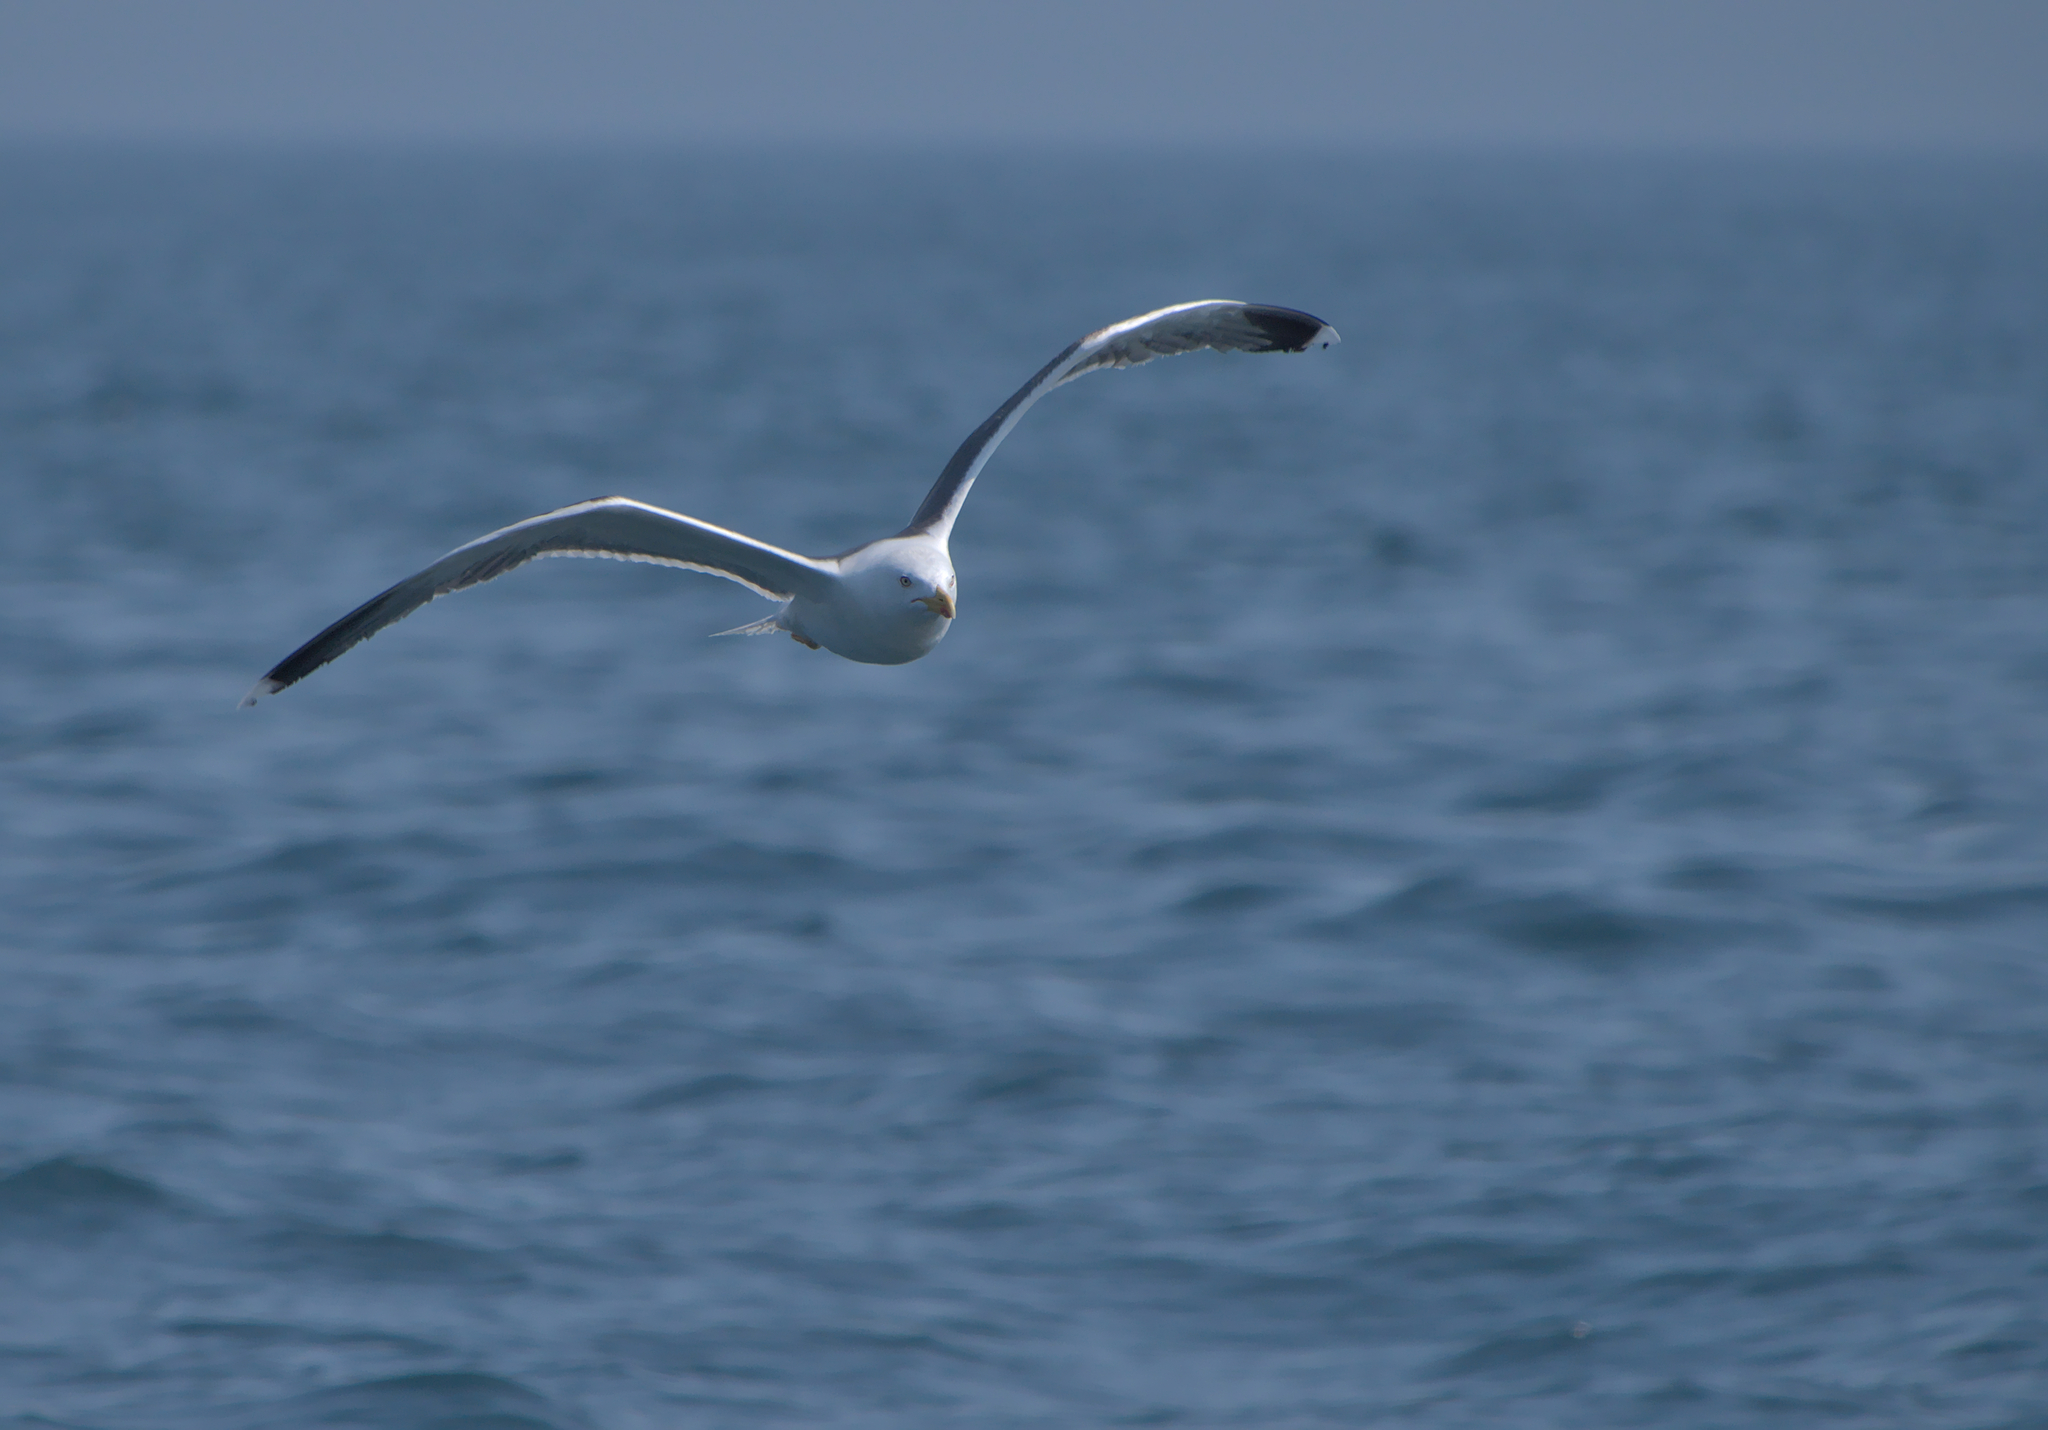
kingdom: Animalia
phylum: Chordata
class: Aves
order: Charadriiformes
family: Laridae
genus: Larus
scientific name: Larus fuscus
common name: Lesser black-backed gull
